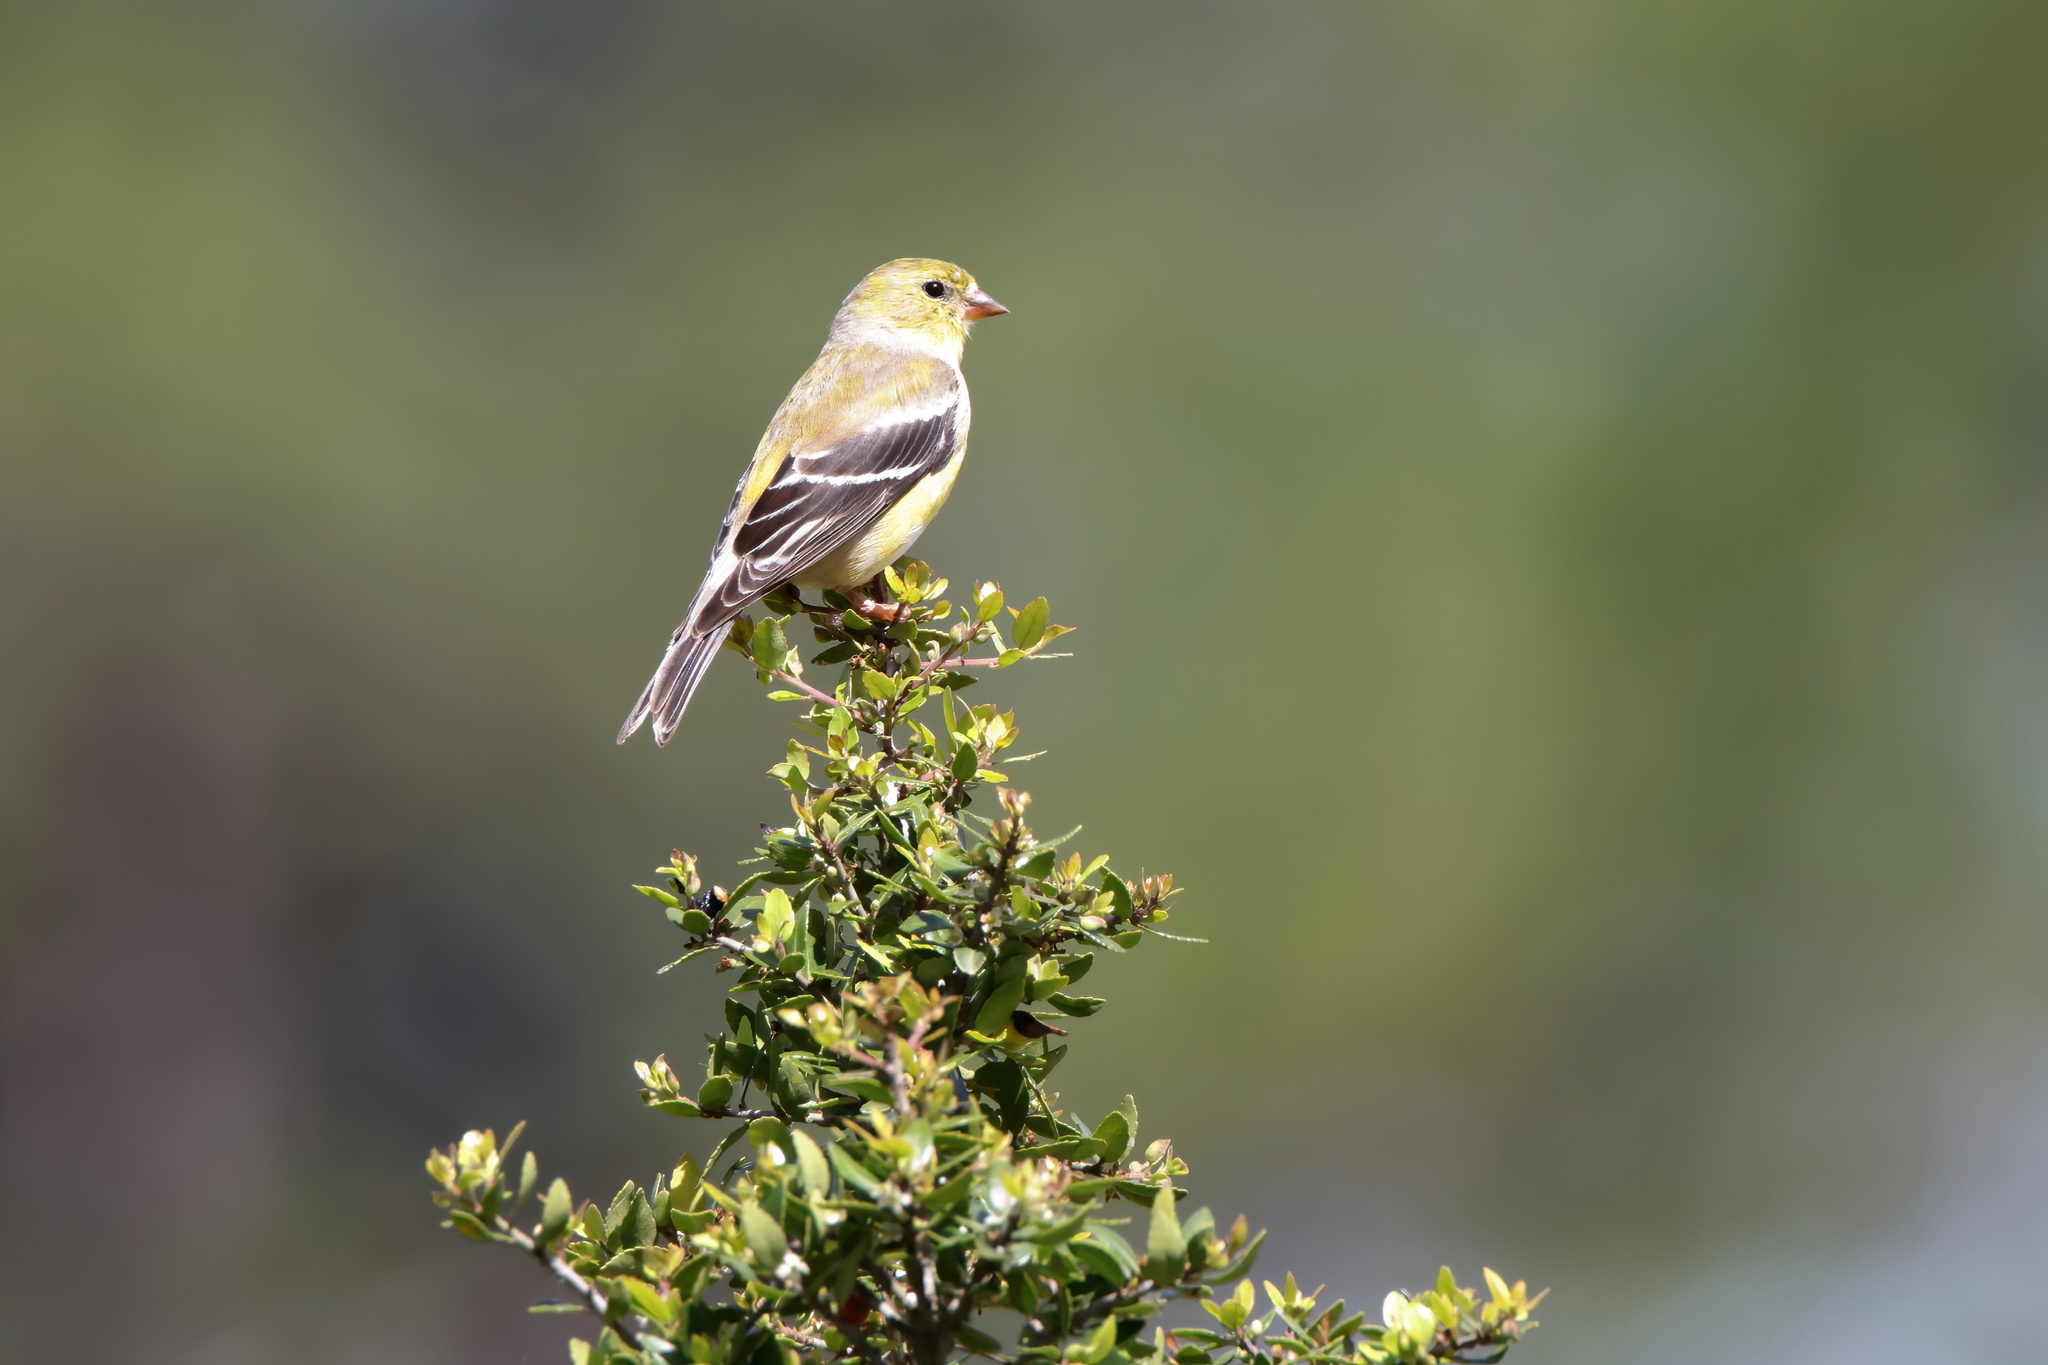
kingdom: Animalia
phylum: Chordata
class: Aves
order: Passeriformes
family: Fringillidae
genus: Spinus
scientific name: Spinus tristis
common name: American goldfinch
